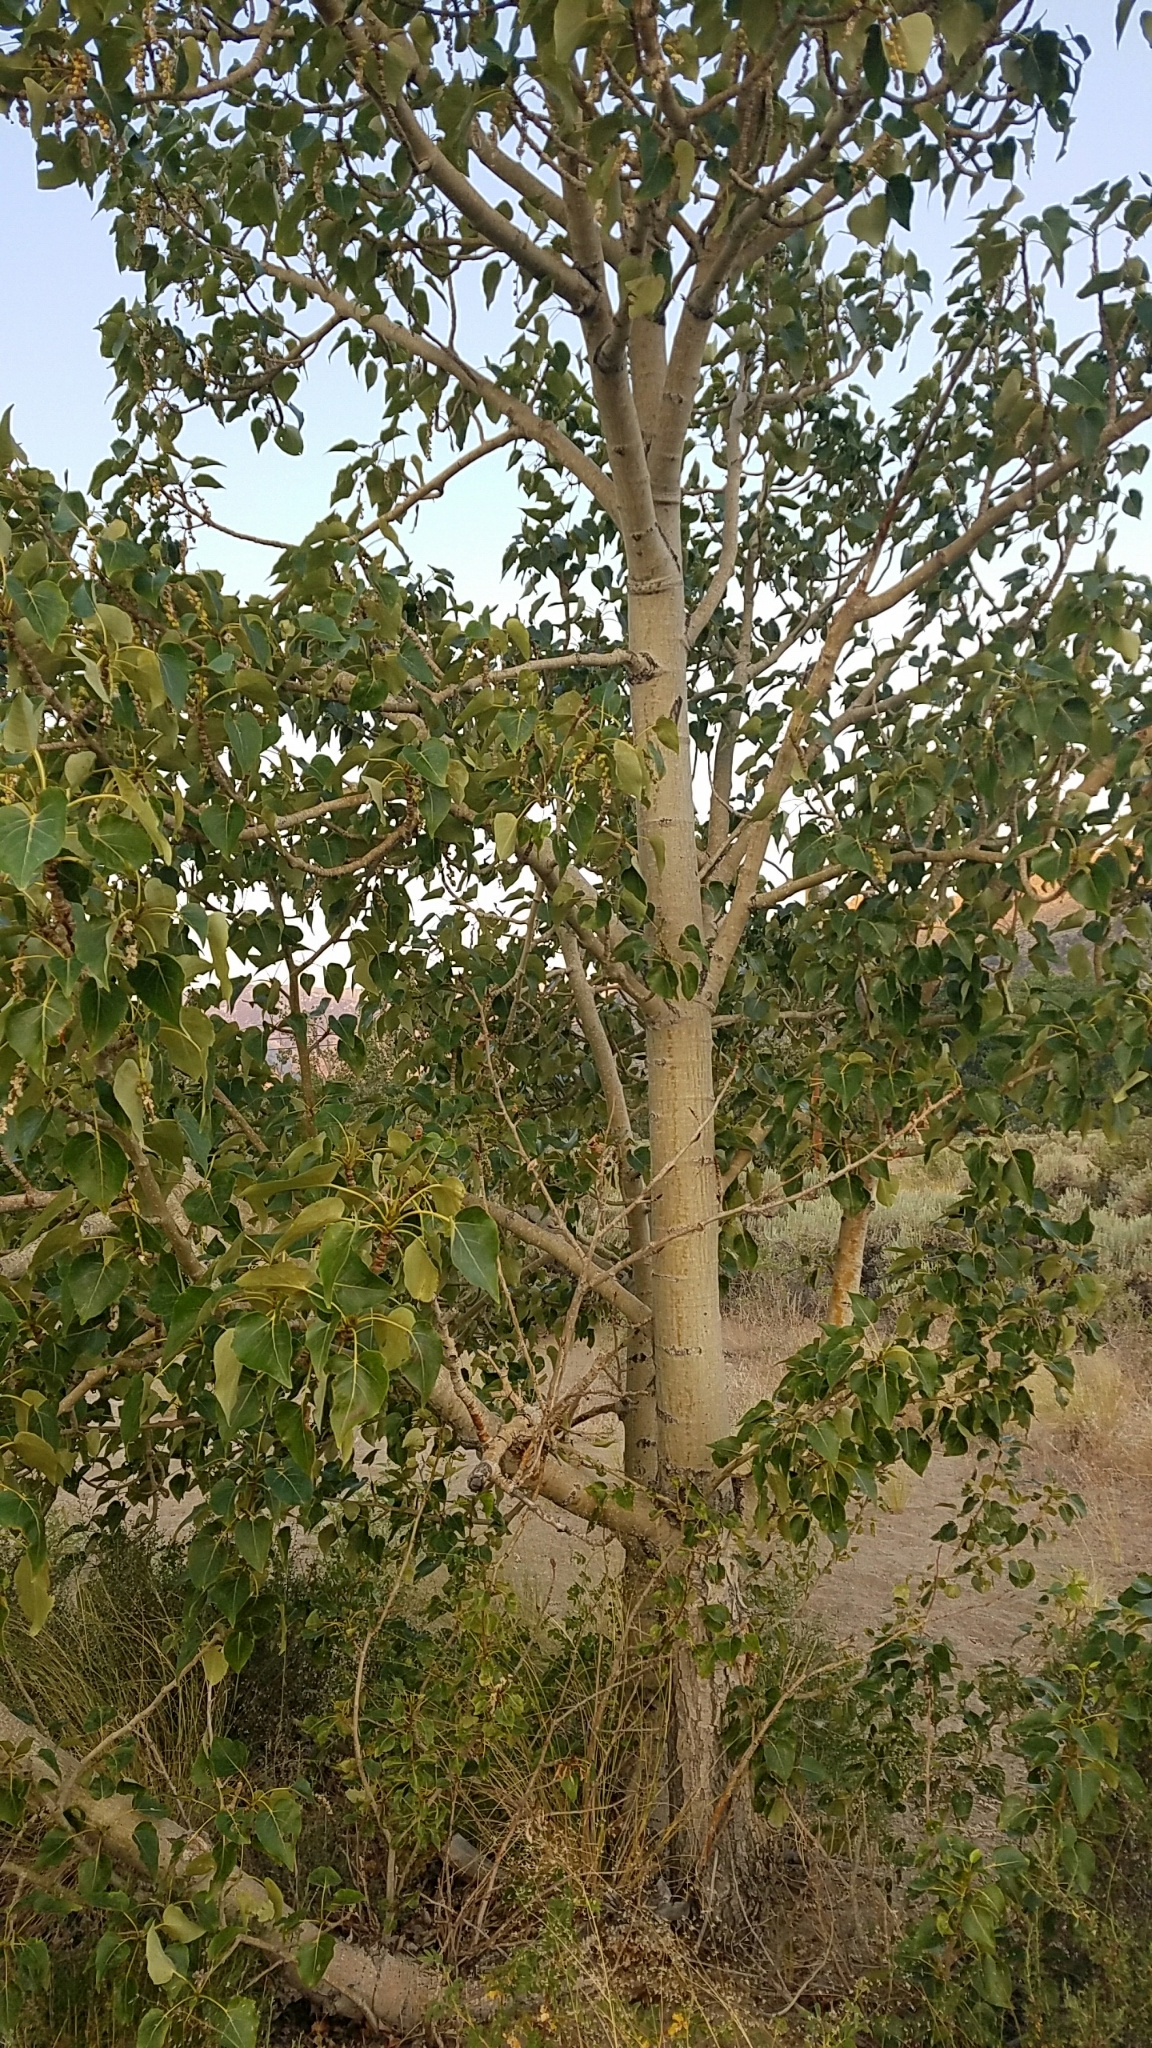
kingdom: Plantae
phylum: Tracheophyta
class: Magnoliopsida
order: Malpighiales
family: Salicaceae
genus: Populus
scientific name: Populus trichocarpa
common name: Black cottonwood
